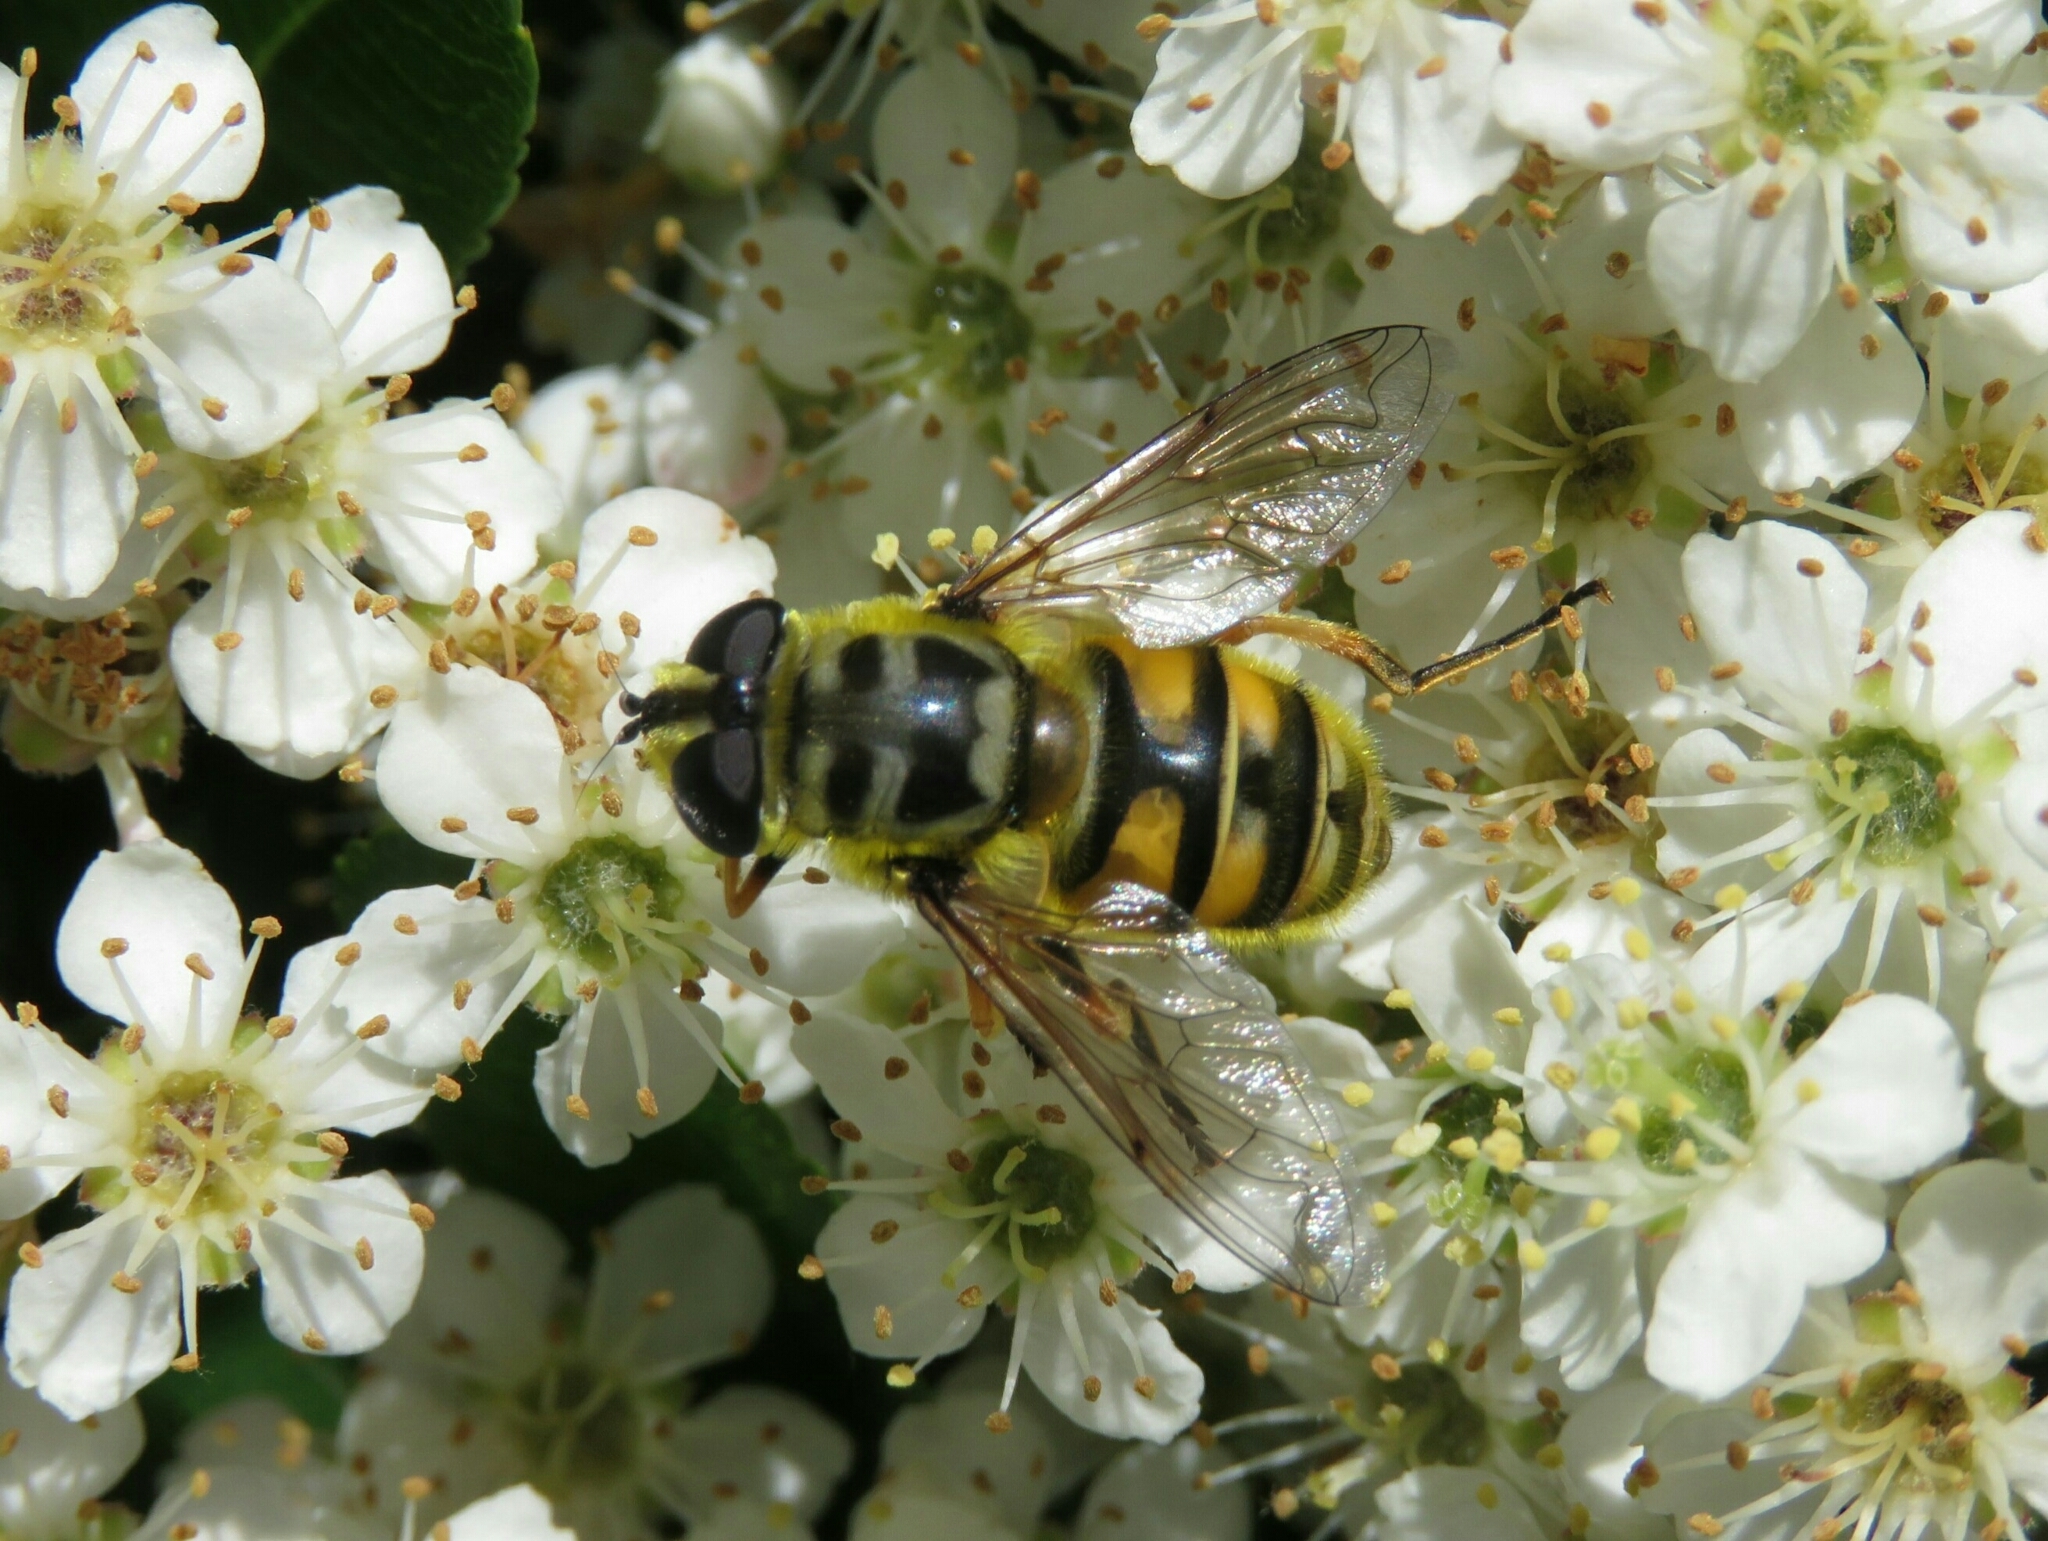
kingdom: Animalia
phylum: Arthropoda
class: Insecta
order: Diptera
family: Syrphidae
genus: Myathropa
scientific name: Myathropa florea
